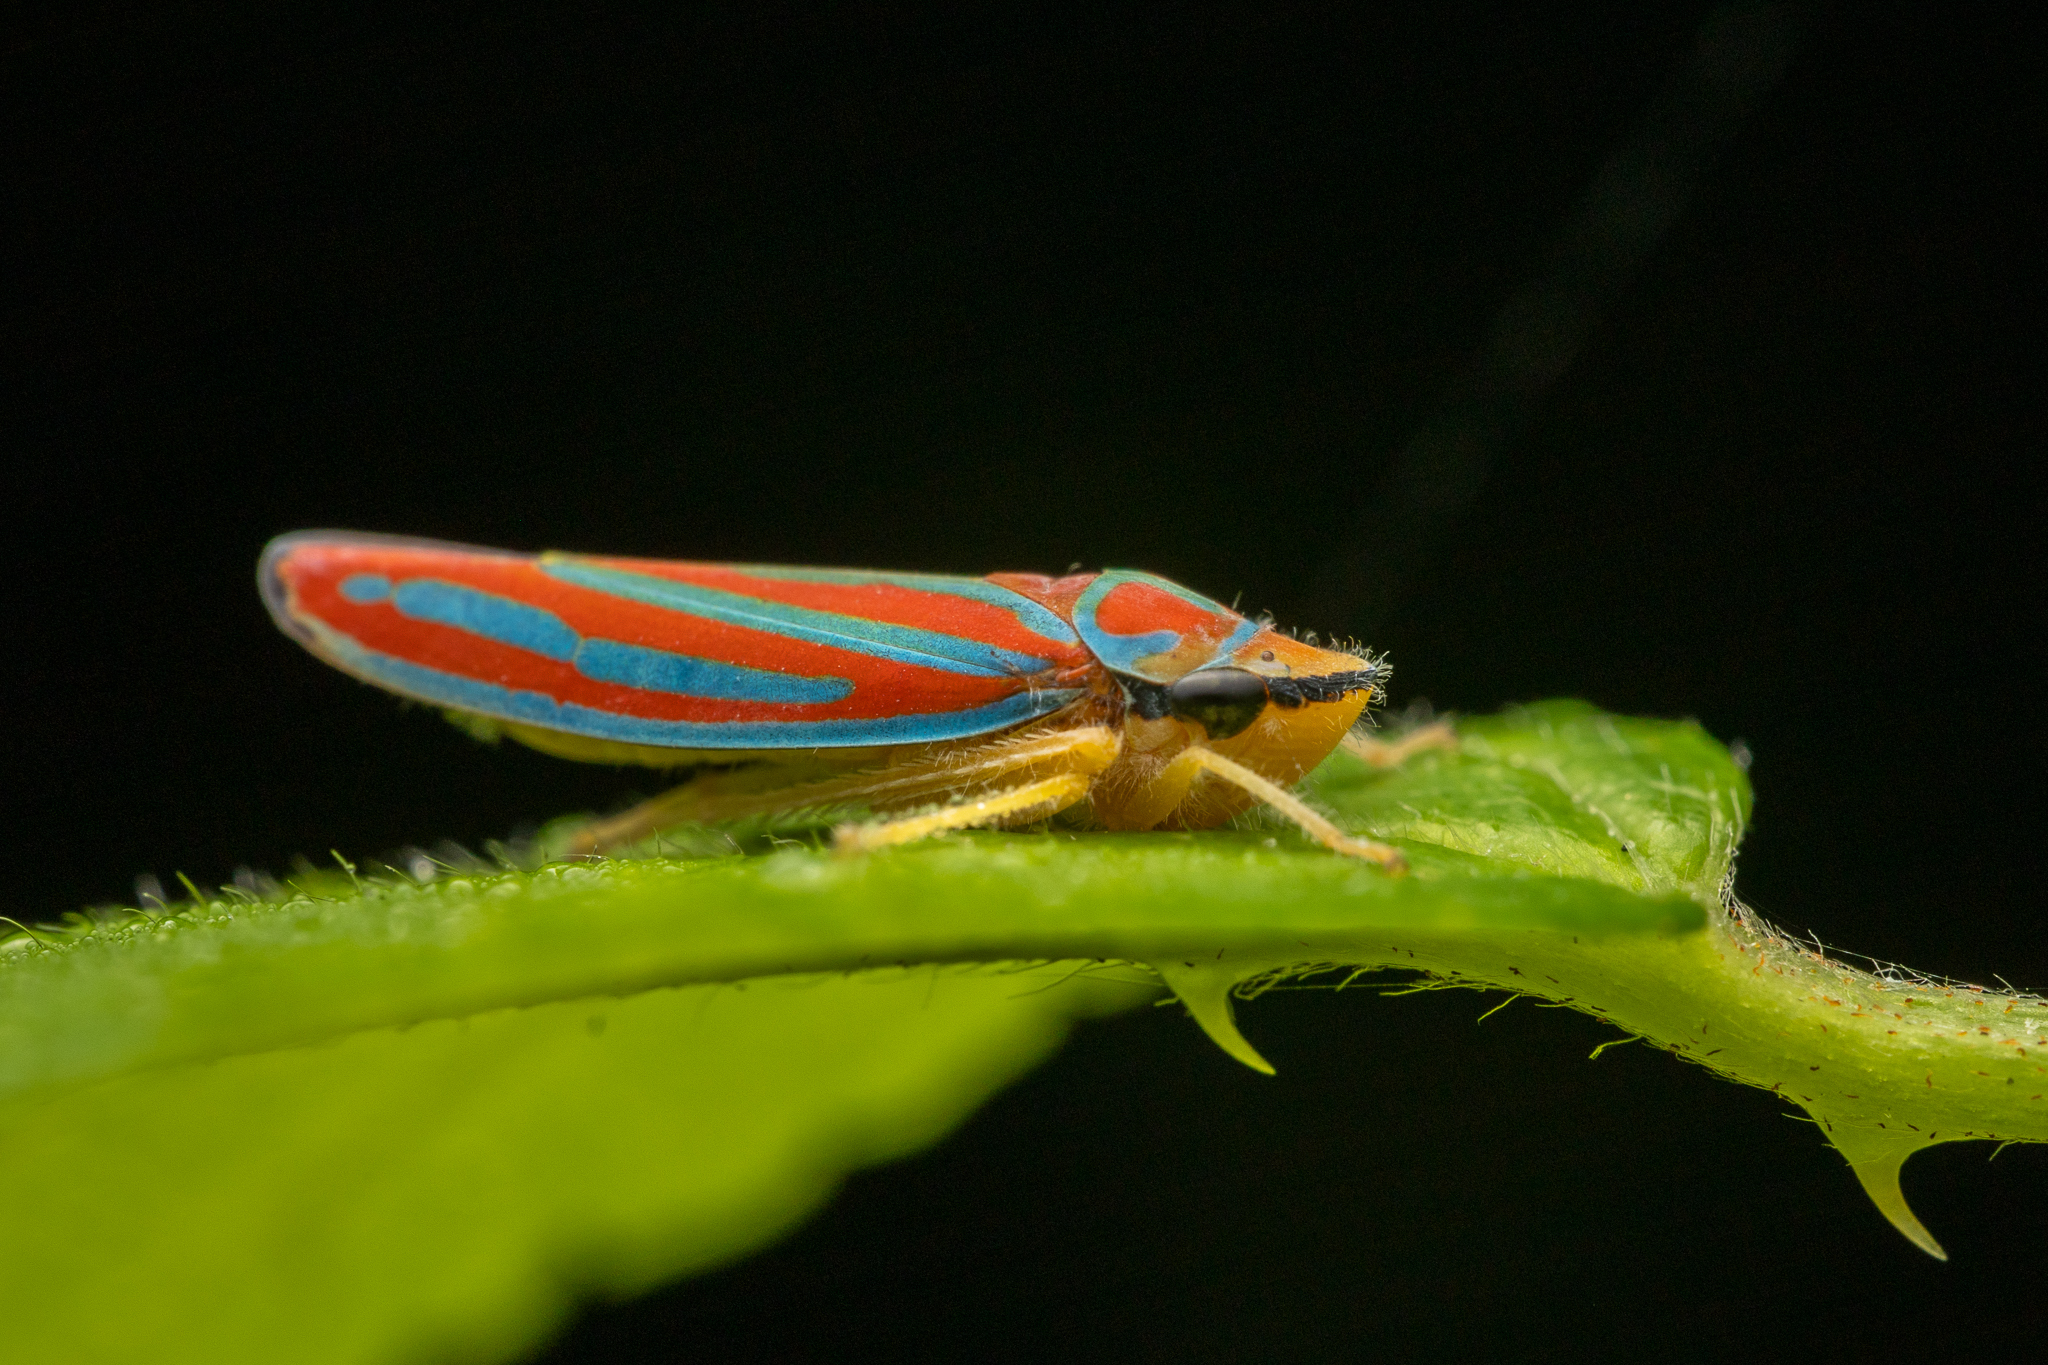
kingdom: Animalia
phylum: Arthropoda
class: Insecta
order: Hemiptera
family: Cicadellidae
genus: Graphocephala
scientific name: Graphocephala coccinea
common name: Candy-striped leafhopper
